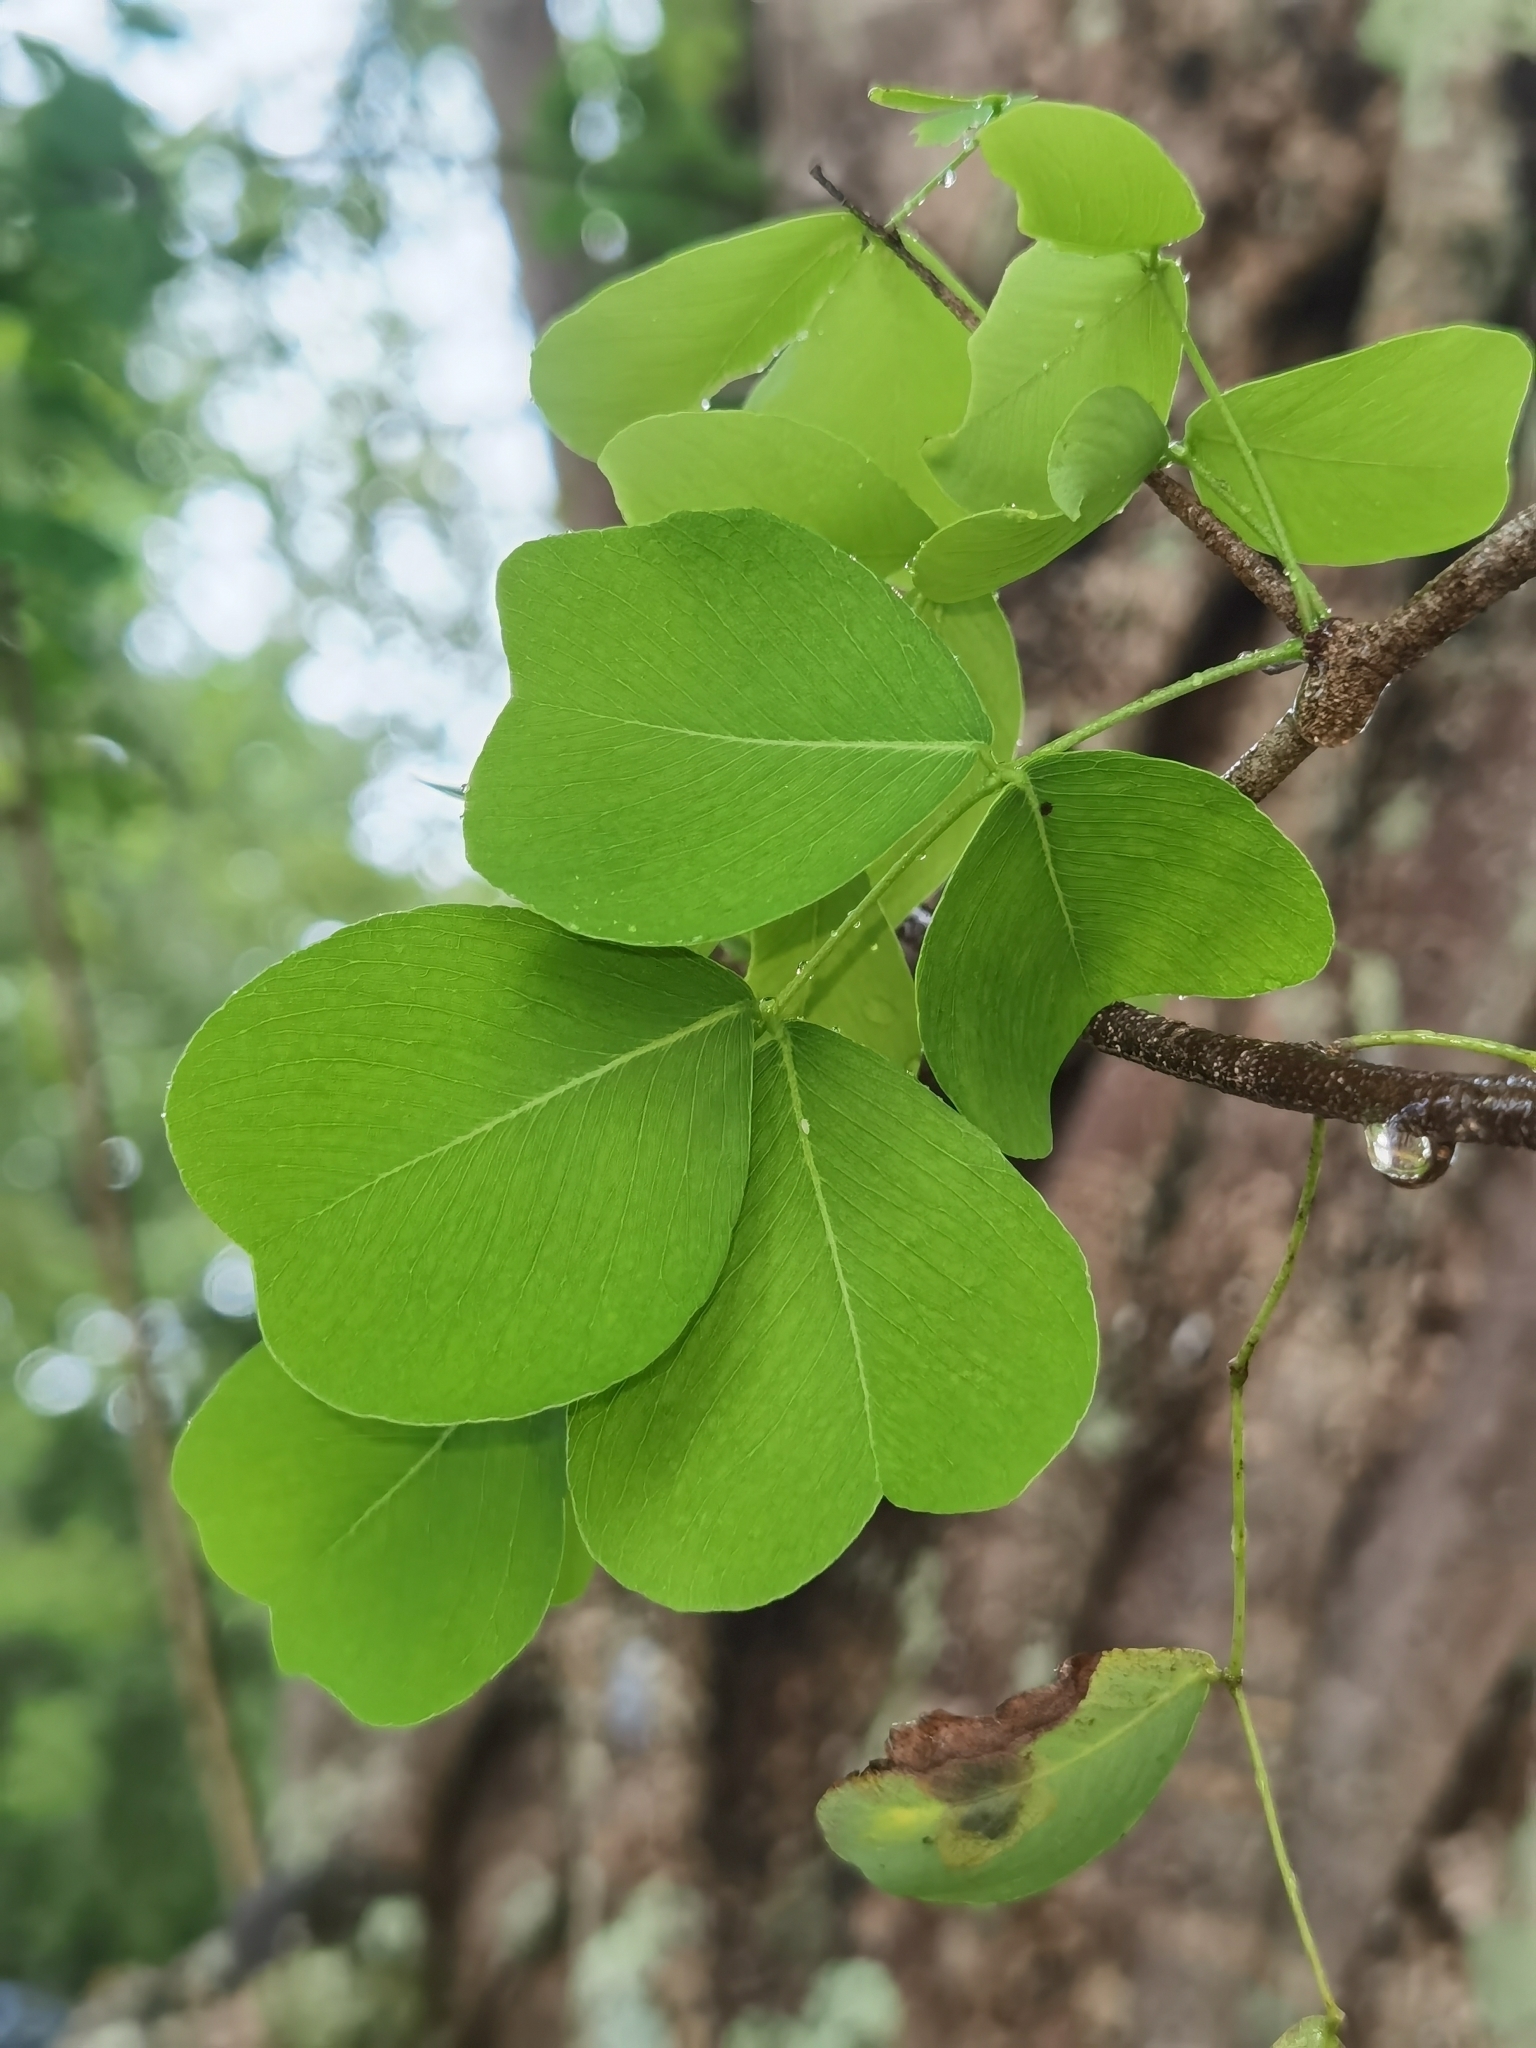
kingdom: Plantae
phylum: Tracheophyta
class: Magnoliopsida
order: Fabales
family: Fabaceae
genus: Haematoxylum
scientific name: Haematoxylum brasiletto
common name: Peachwood
